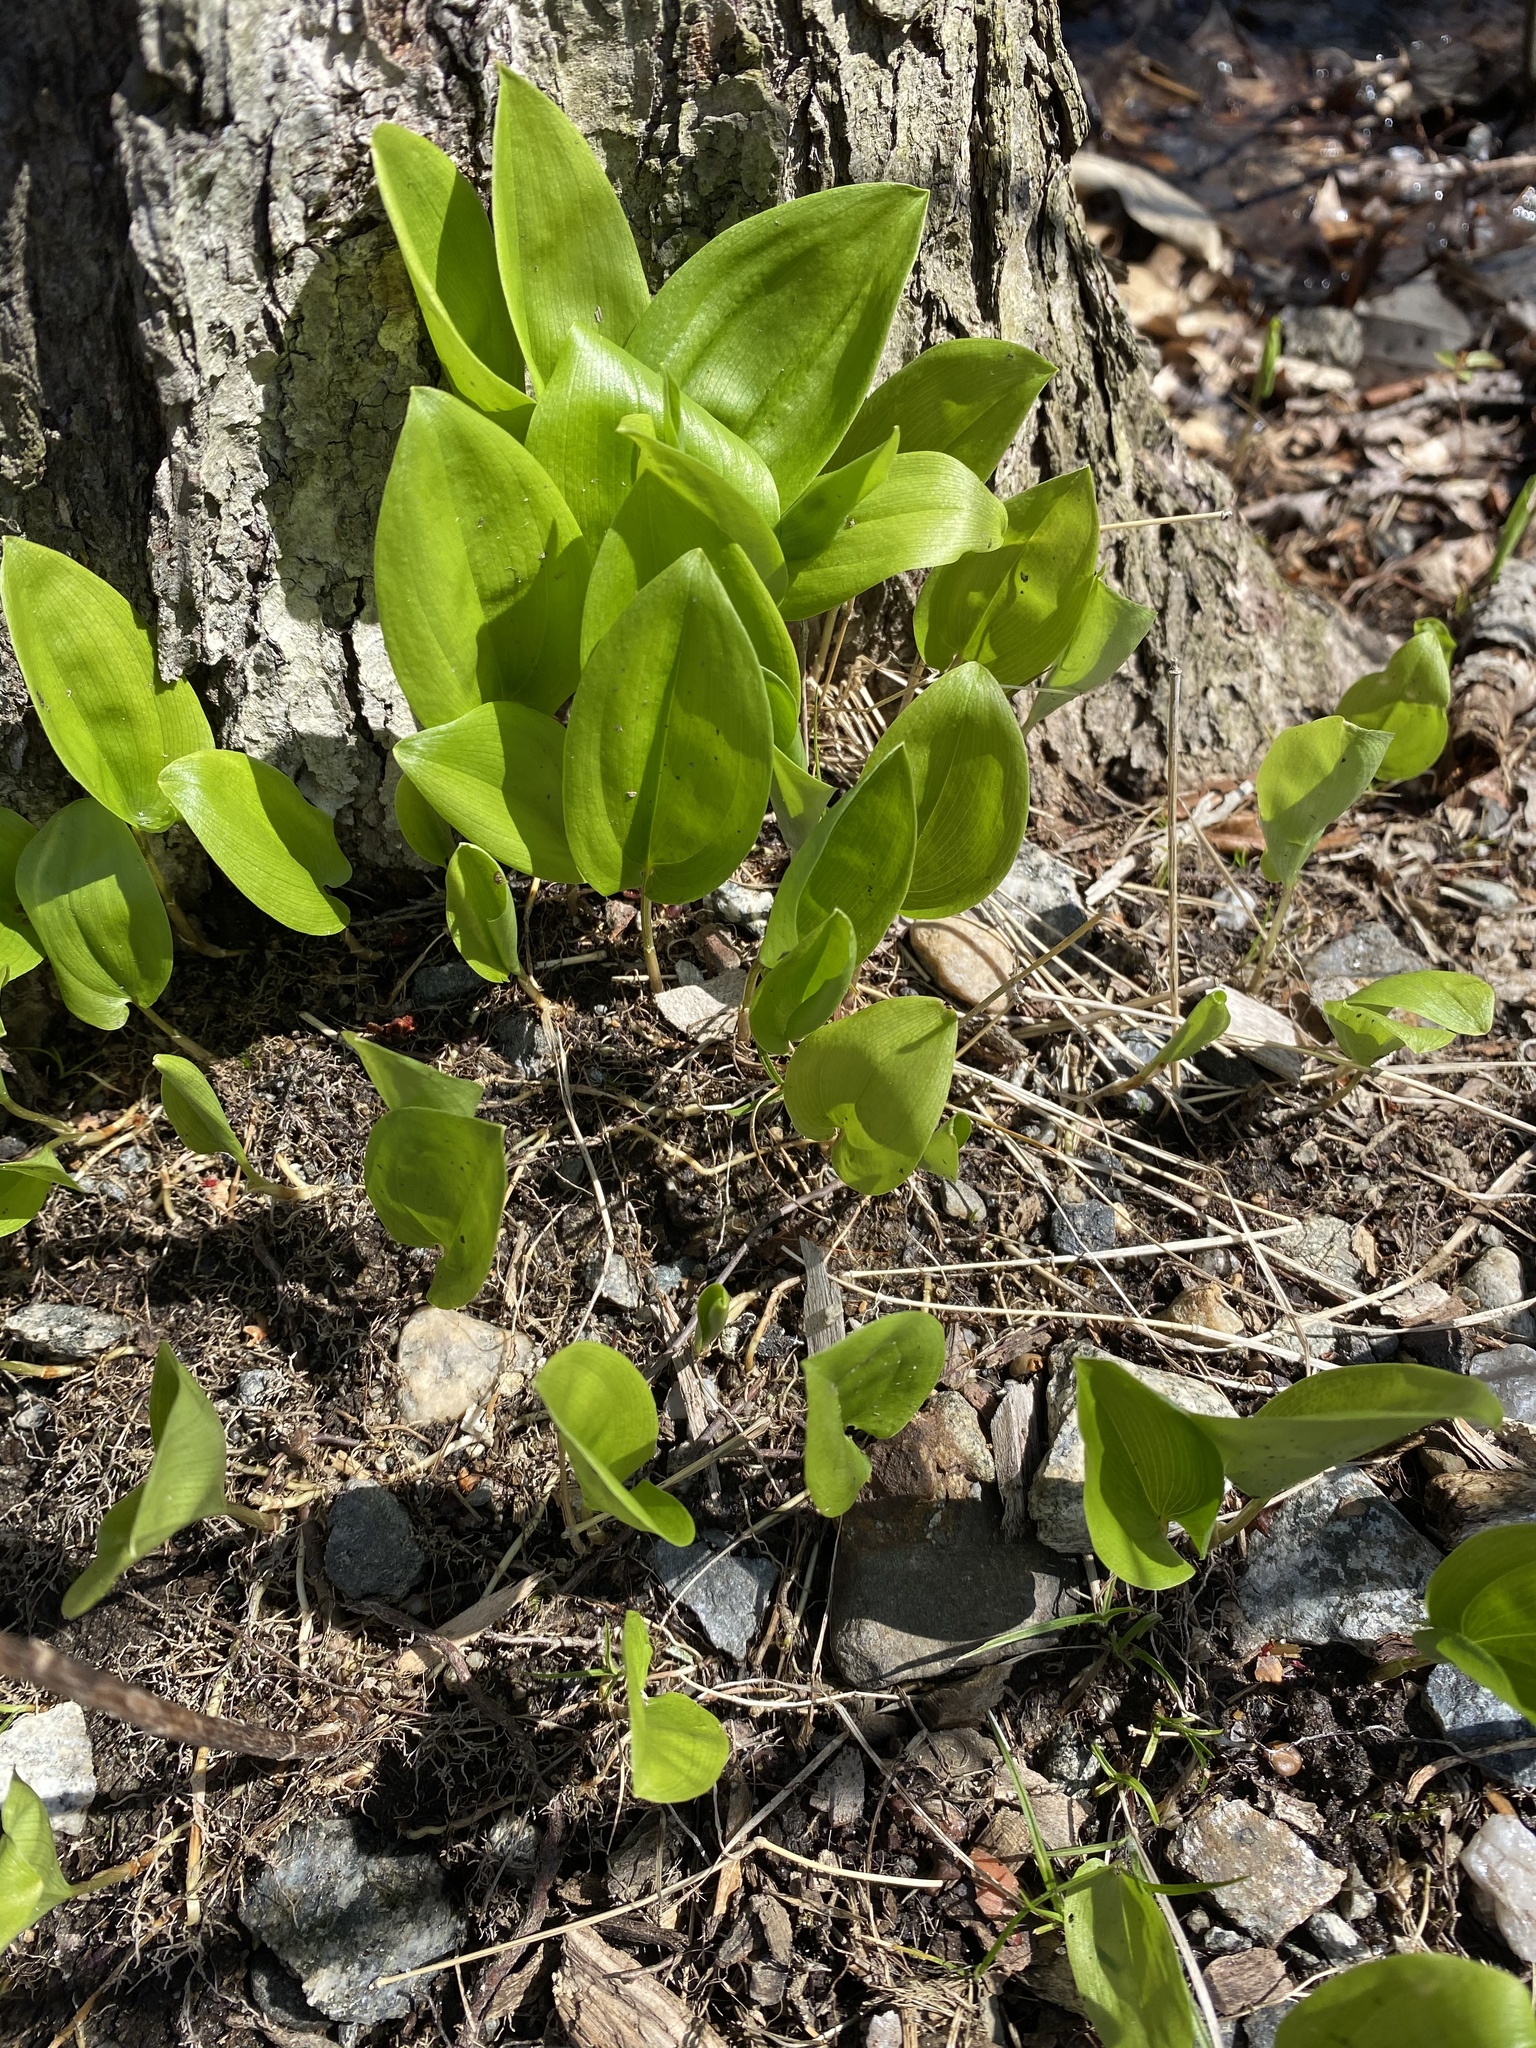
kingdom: Plantae
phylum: Tracheophyta
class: Liliopsida
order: Asparagales
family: Asparagaceae
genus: Maianthemum
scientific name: Maianthemum canadense
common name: False lily-of-the-valley
